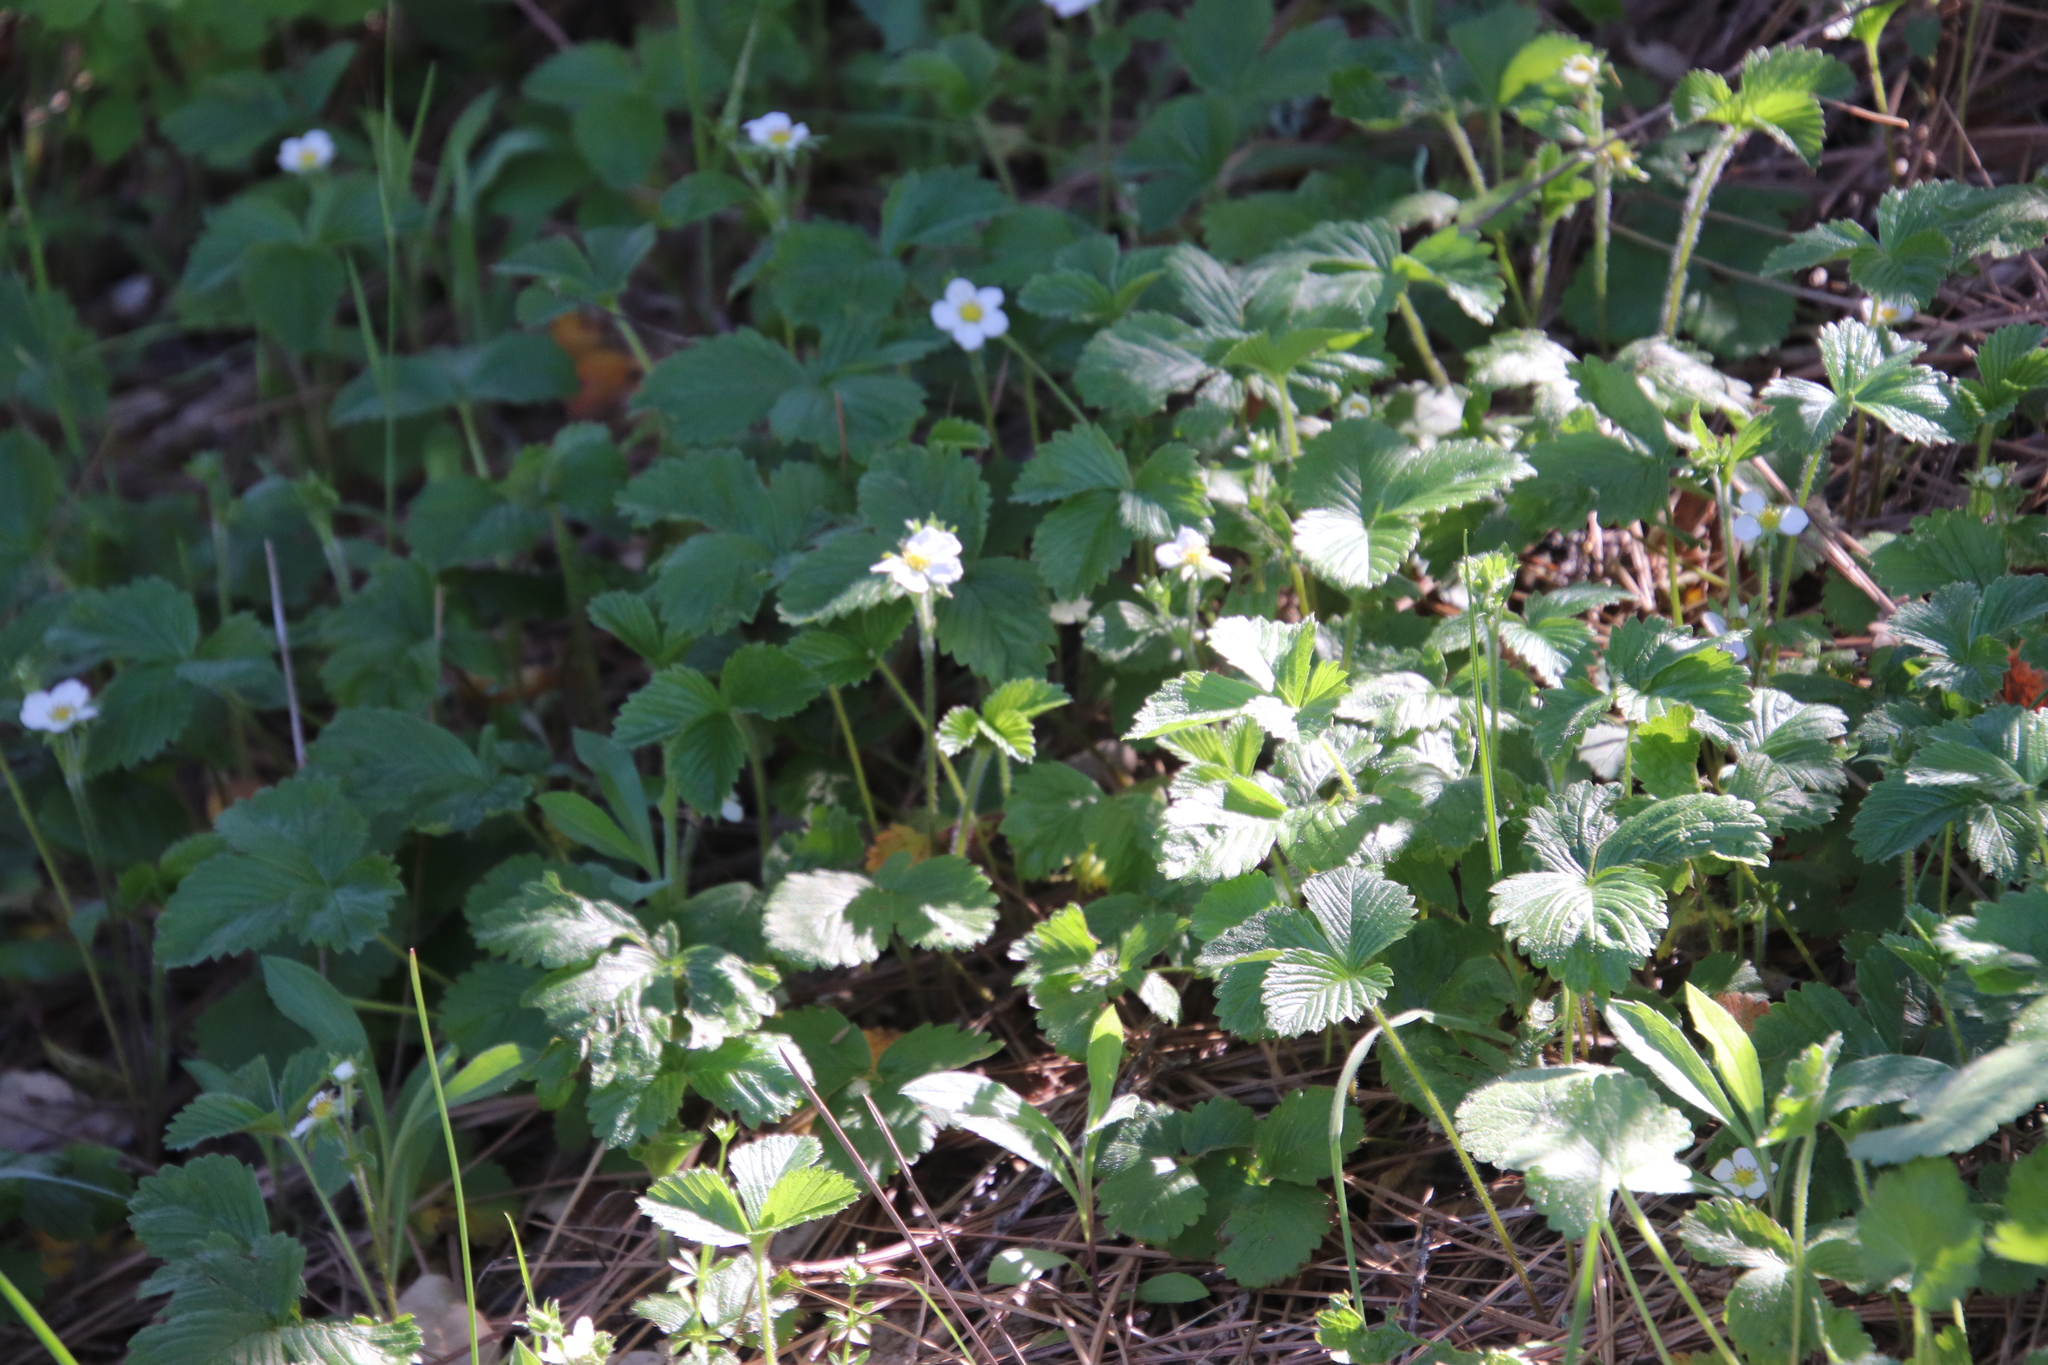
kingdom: Plantae
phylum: Tracheophyta
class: Magnoliopsida
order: Rosales
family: Rosaceae
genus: Fragaria
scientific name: Fragaria vesca
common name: Wild strawberry
